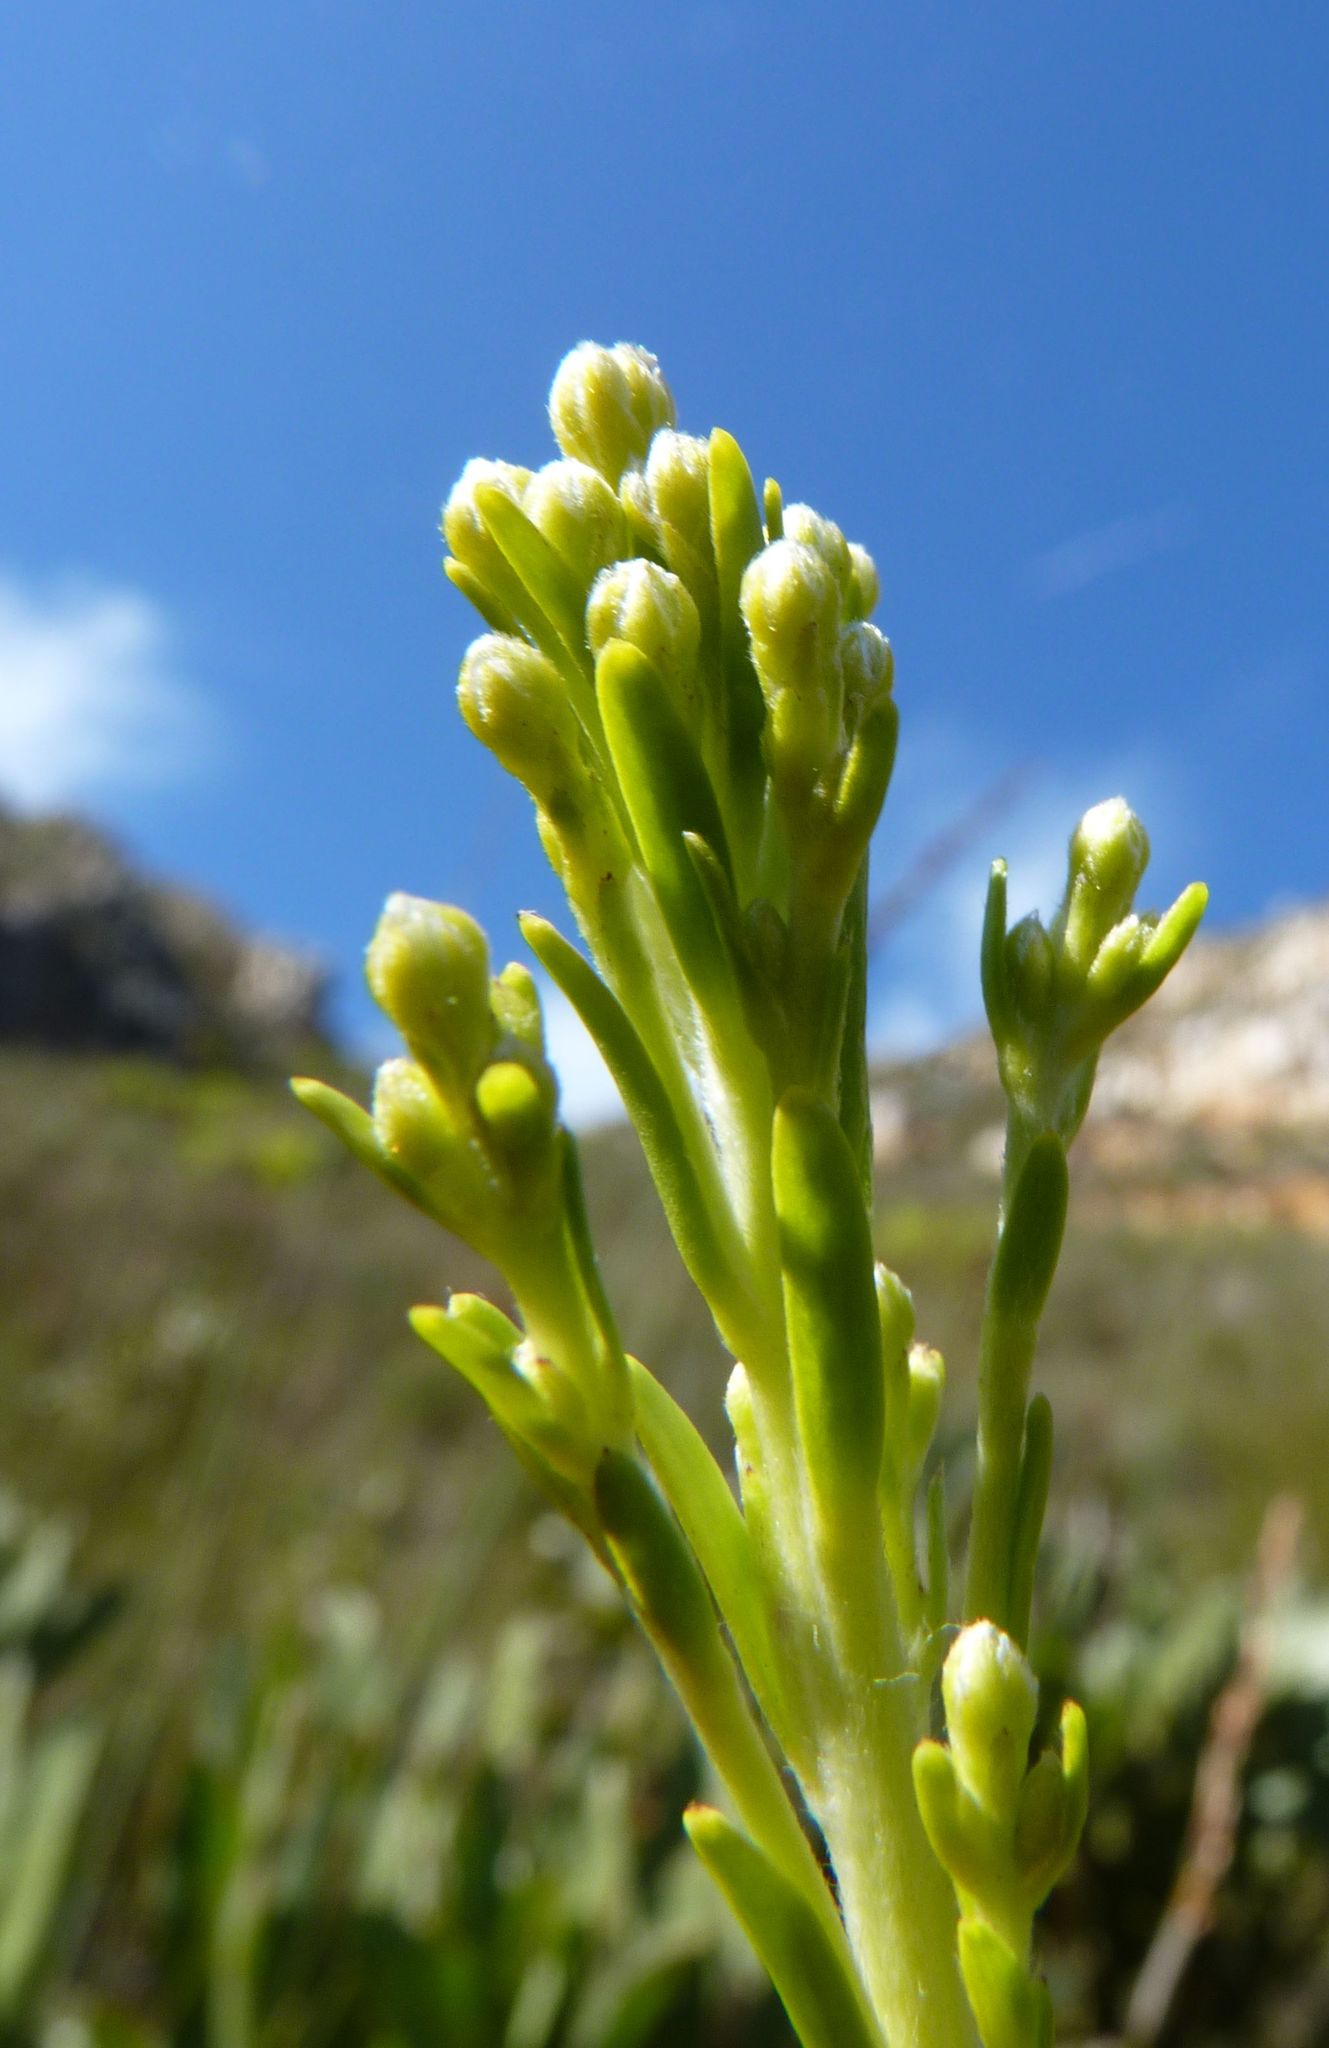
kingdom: Plantae
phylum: Tracheophyta
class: Magnoliopsida
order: Proteales
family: Proteaceae
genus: Leucadendron
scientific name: Leucadendron ericifolium
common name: Erica-leaved conebush
